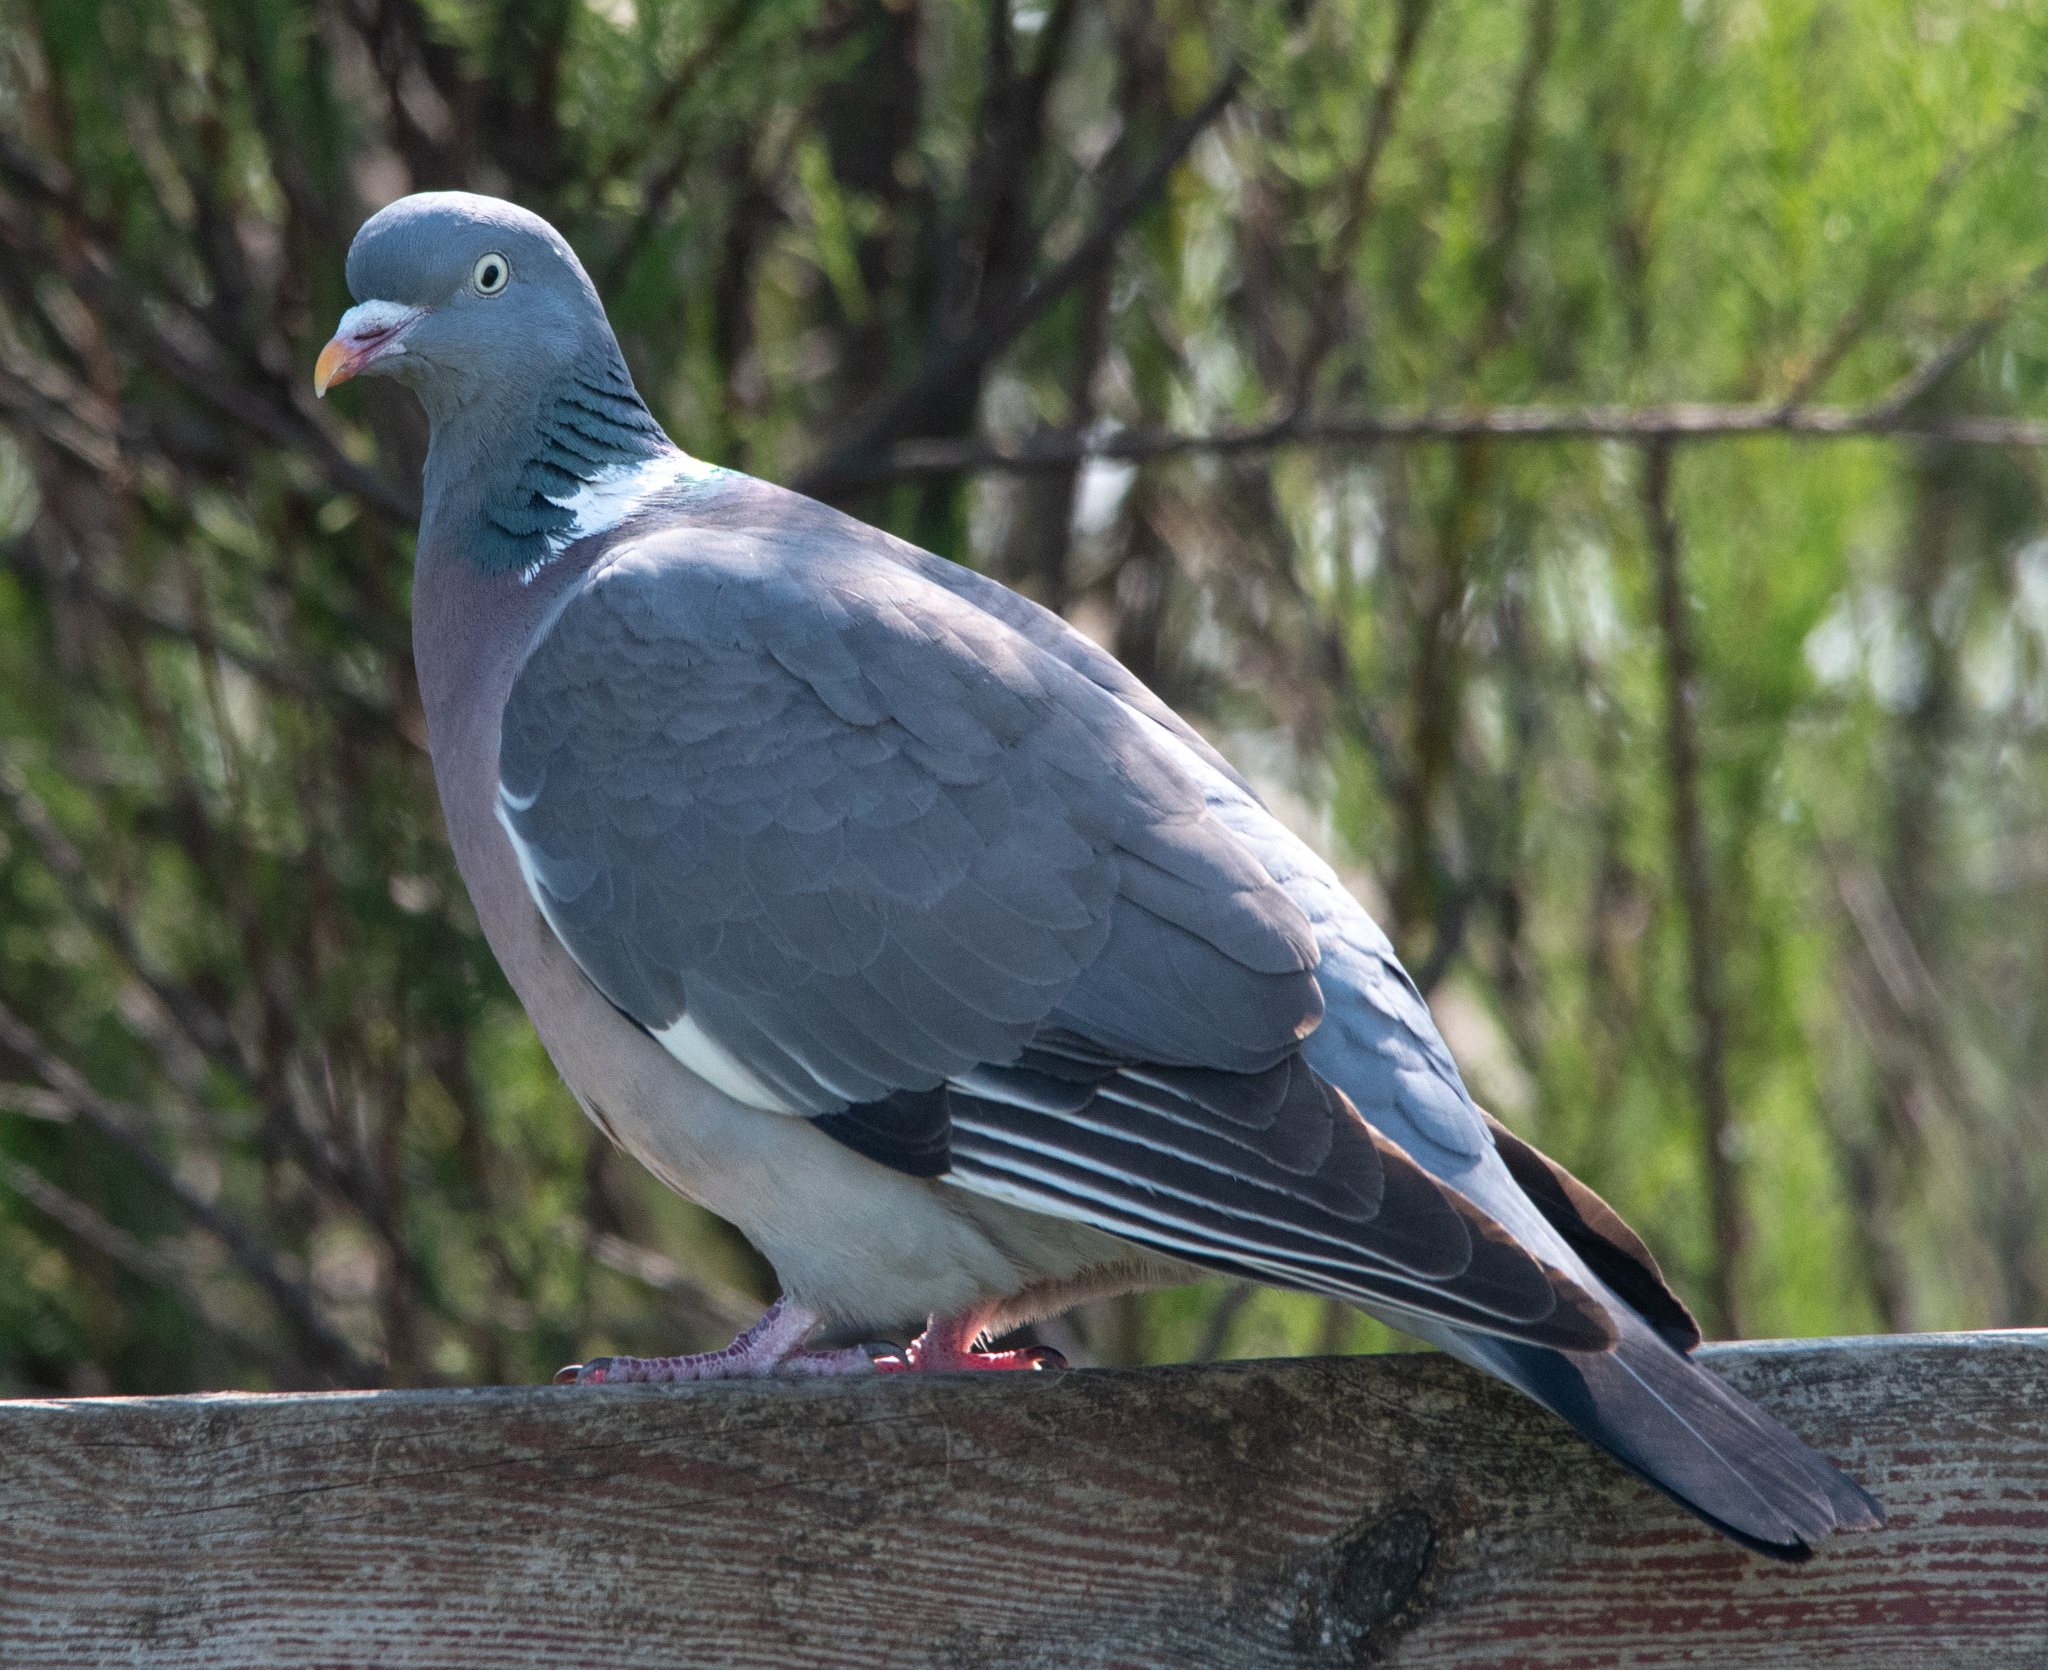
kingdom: Animalia
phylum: Chordata
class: Aves
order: Columbiformes
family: Columbidae
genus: Columba
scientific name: Columba palumbus
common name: Common wood pigeon
